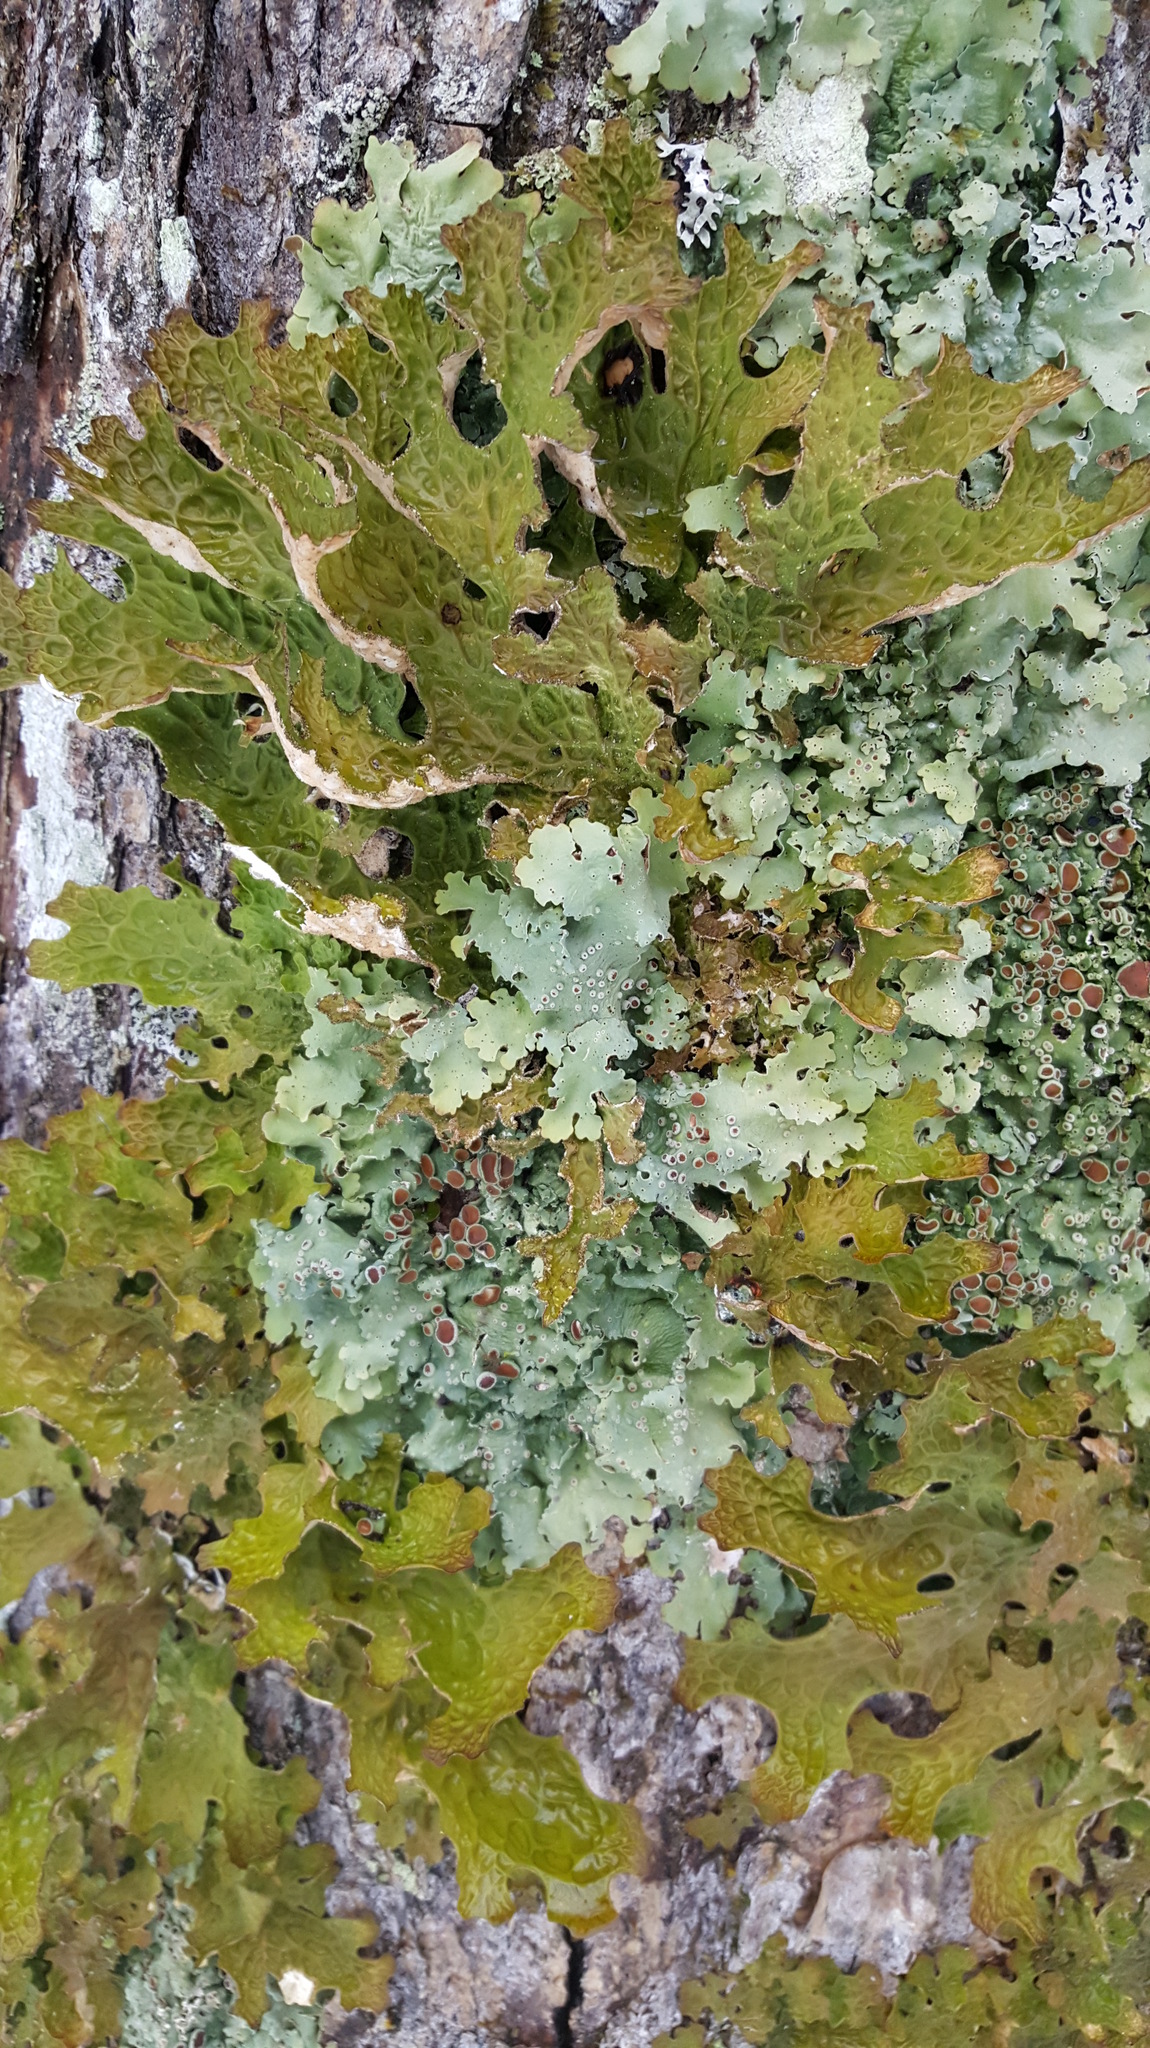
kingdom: Fungi
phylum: Ascomycota
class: Lecanoromycetes
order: Peltigerales
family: Lobariaceae
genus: Ricasolia
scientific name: Ricasolia quercizans
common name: Smooth lungwort
